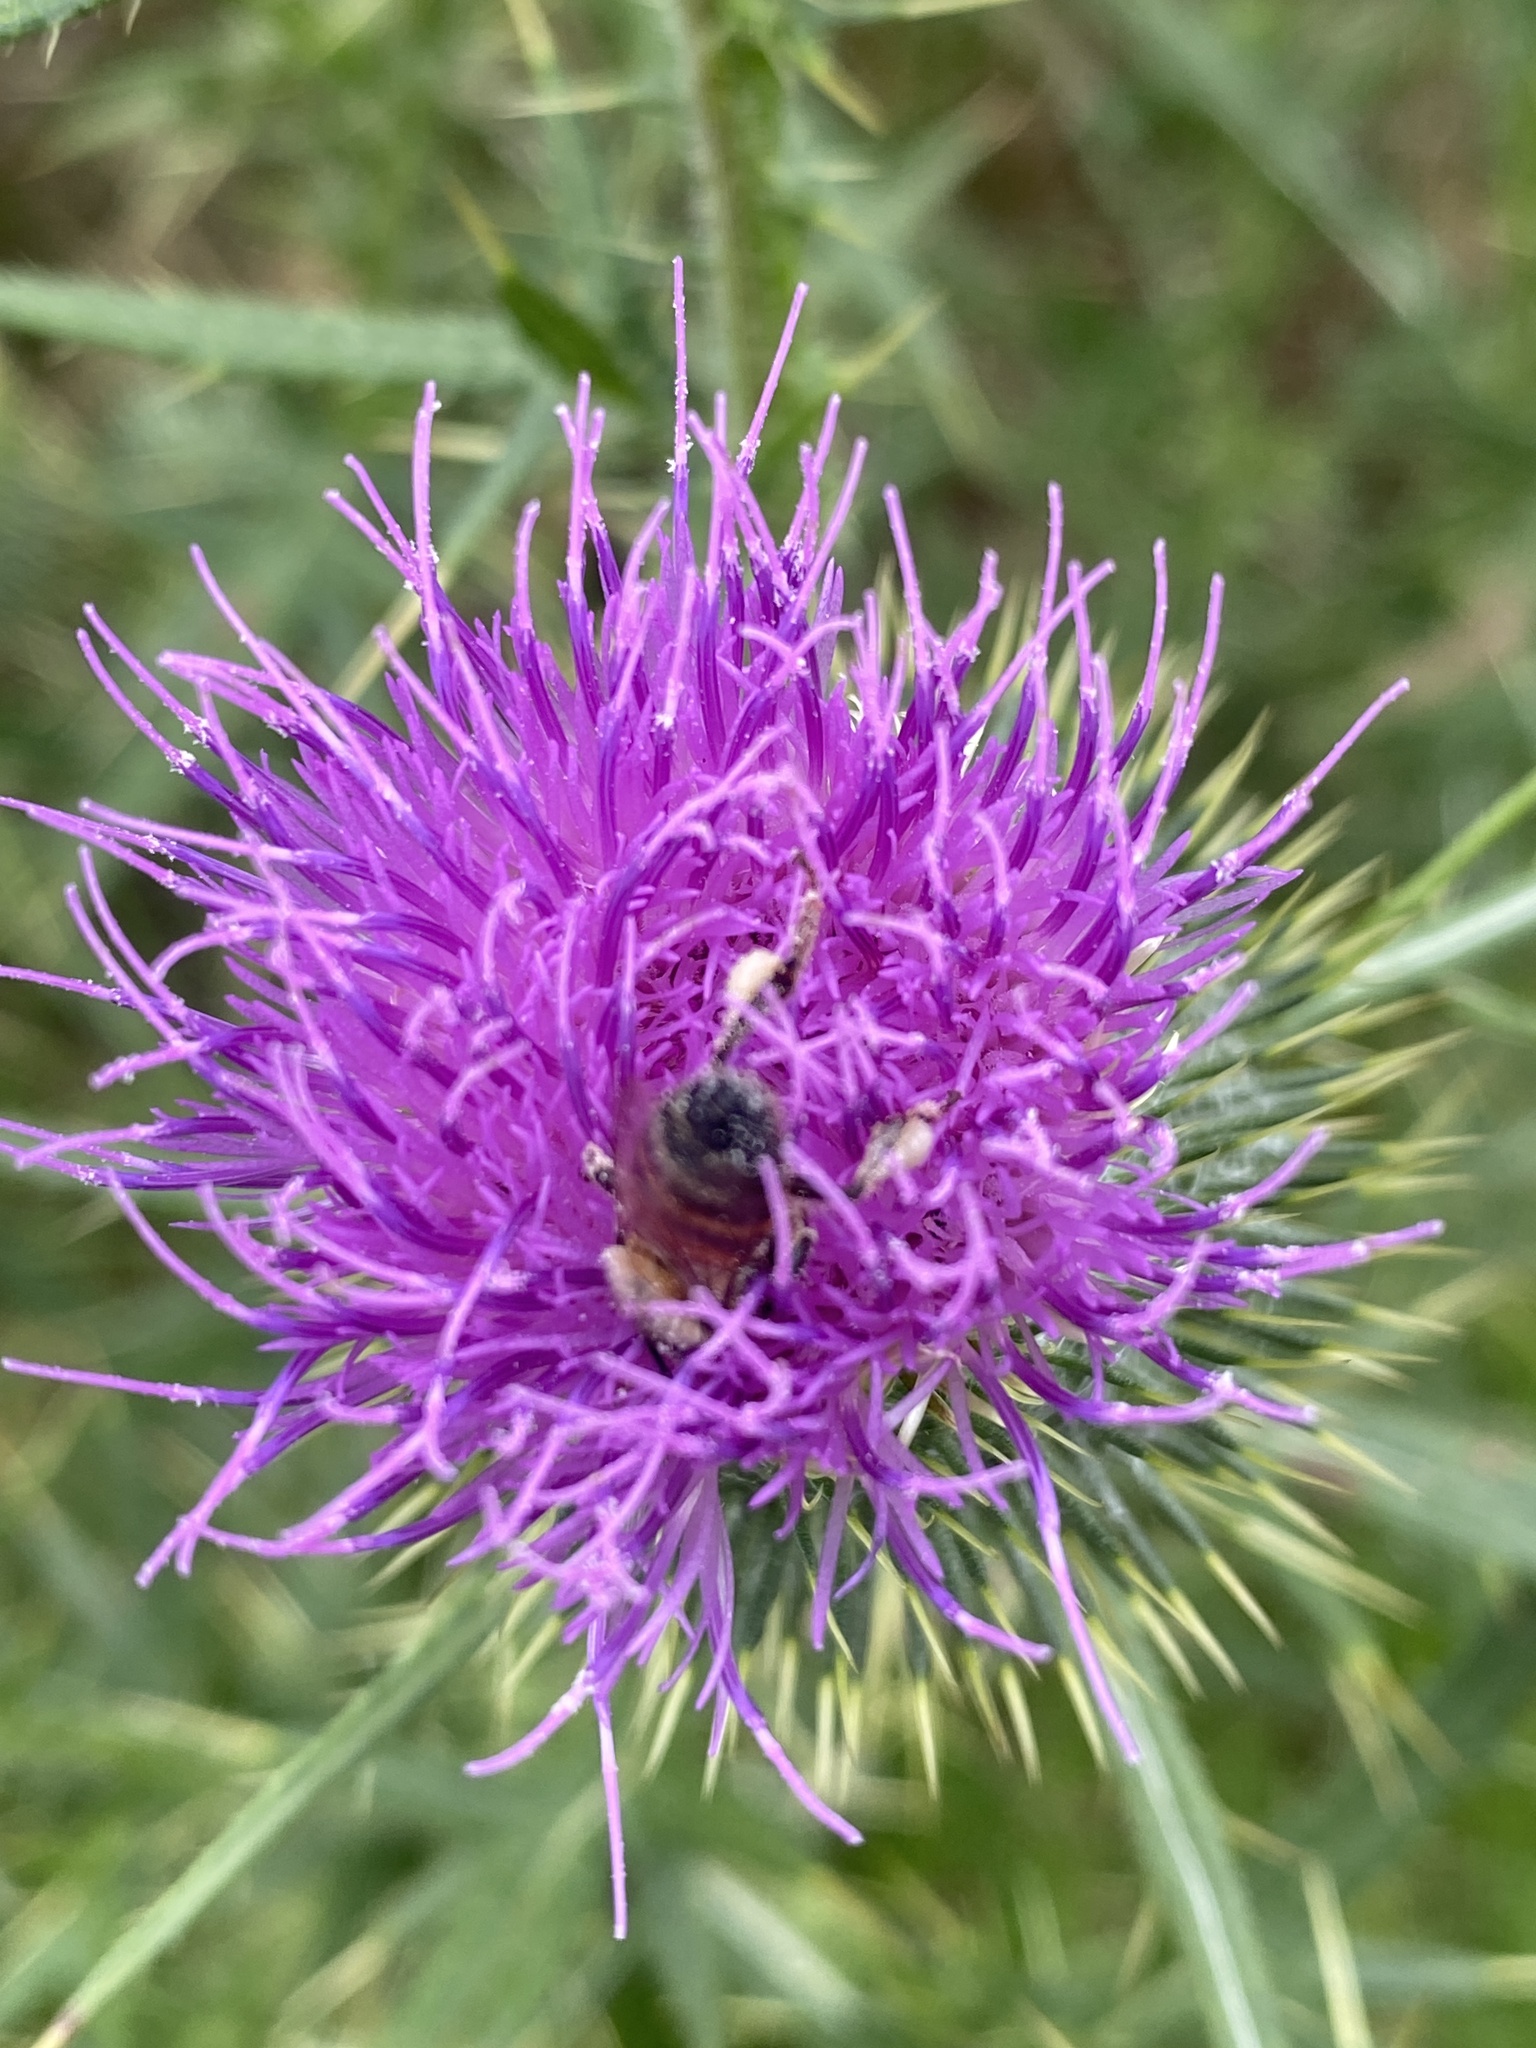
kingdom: Animalia
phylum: Arthropoda
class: Insecta
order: Hymenoptera
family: Apidae
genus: Apis
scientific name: Apis mellifera
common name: Honey bee
